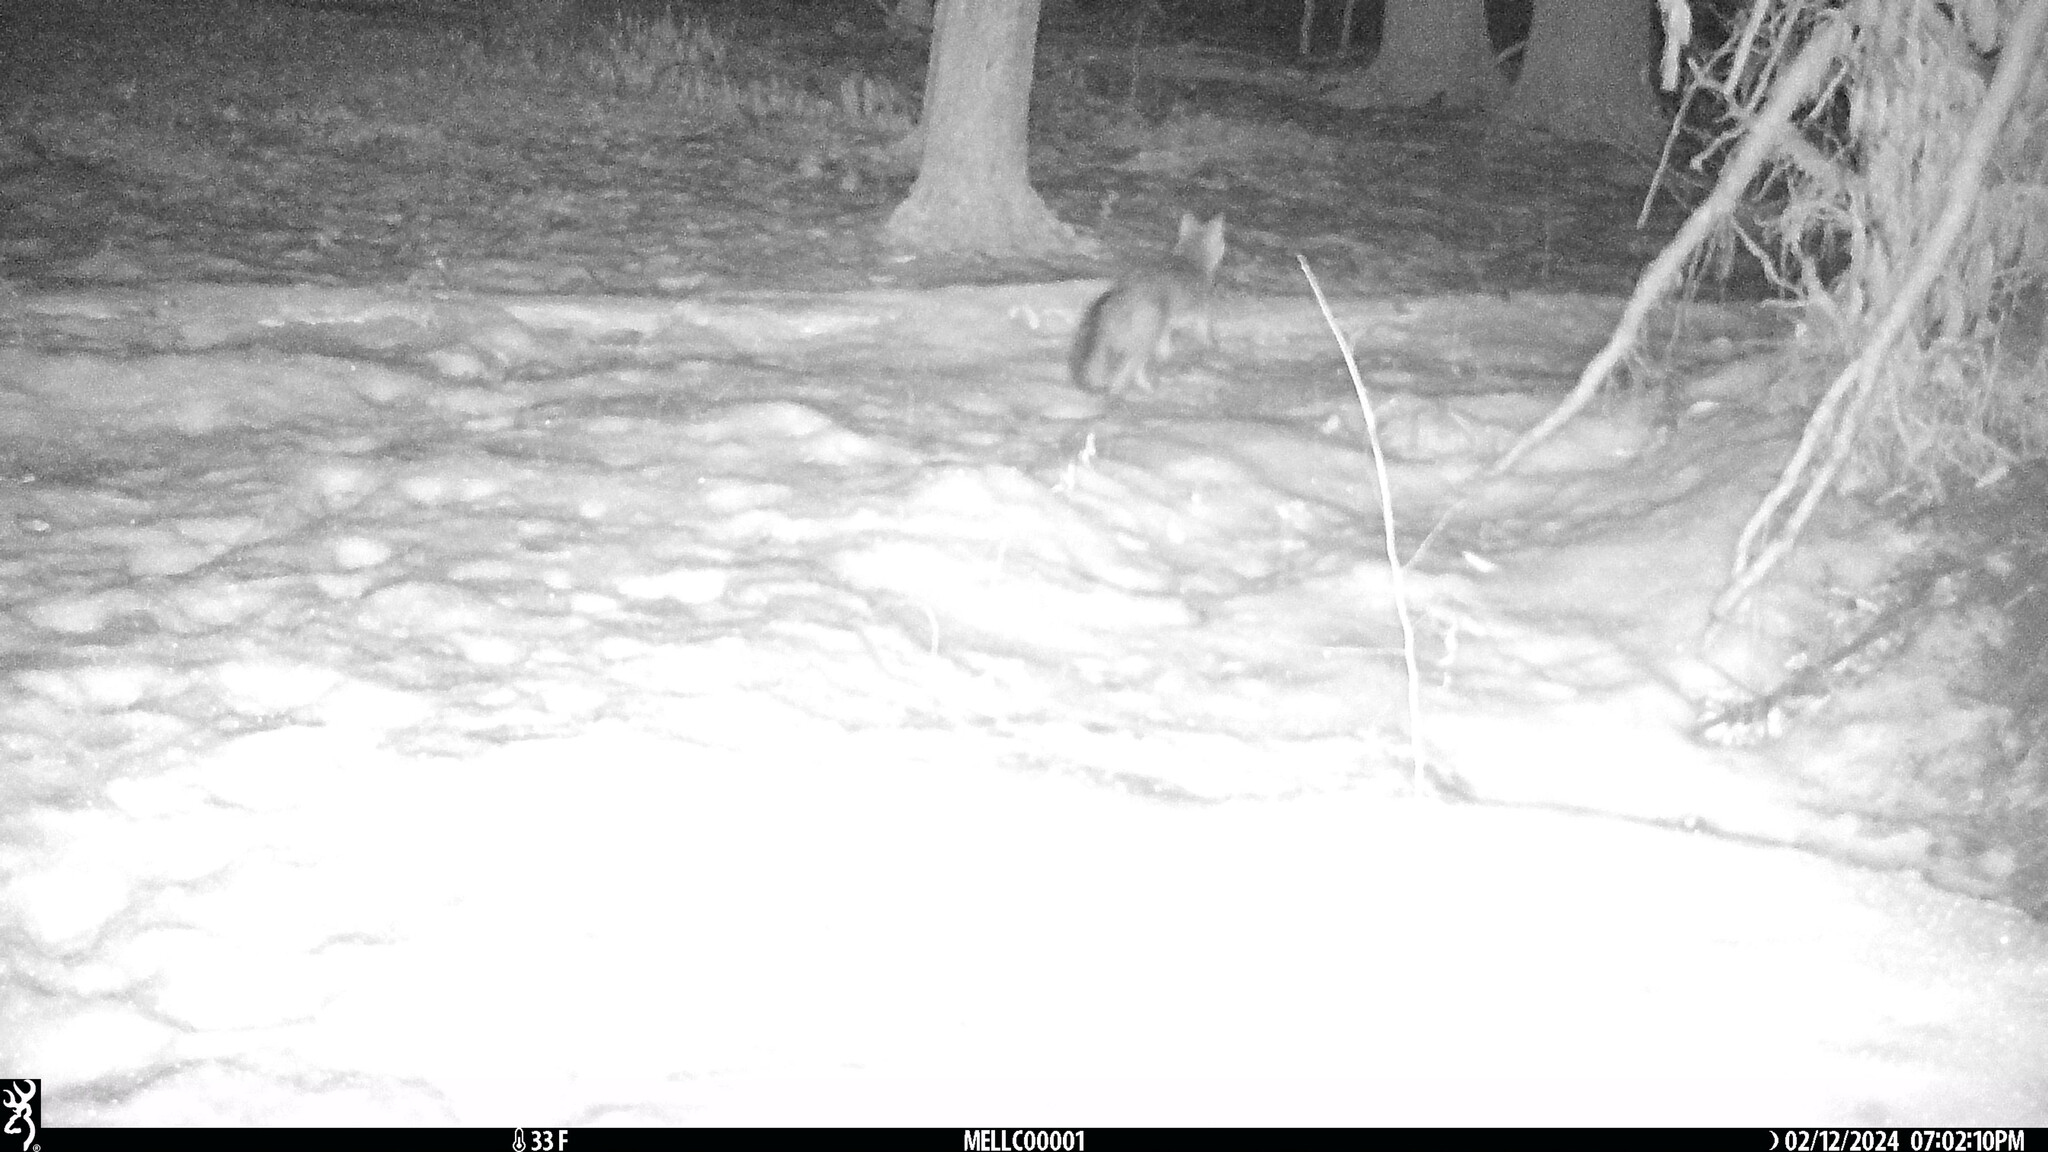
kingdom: Animalia
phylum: Chordata
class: Mammalia
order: Carnivora
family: Canidae
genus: Urocyon
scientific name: Urocyon cinereoargenteus
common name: Gray fox
